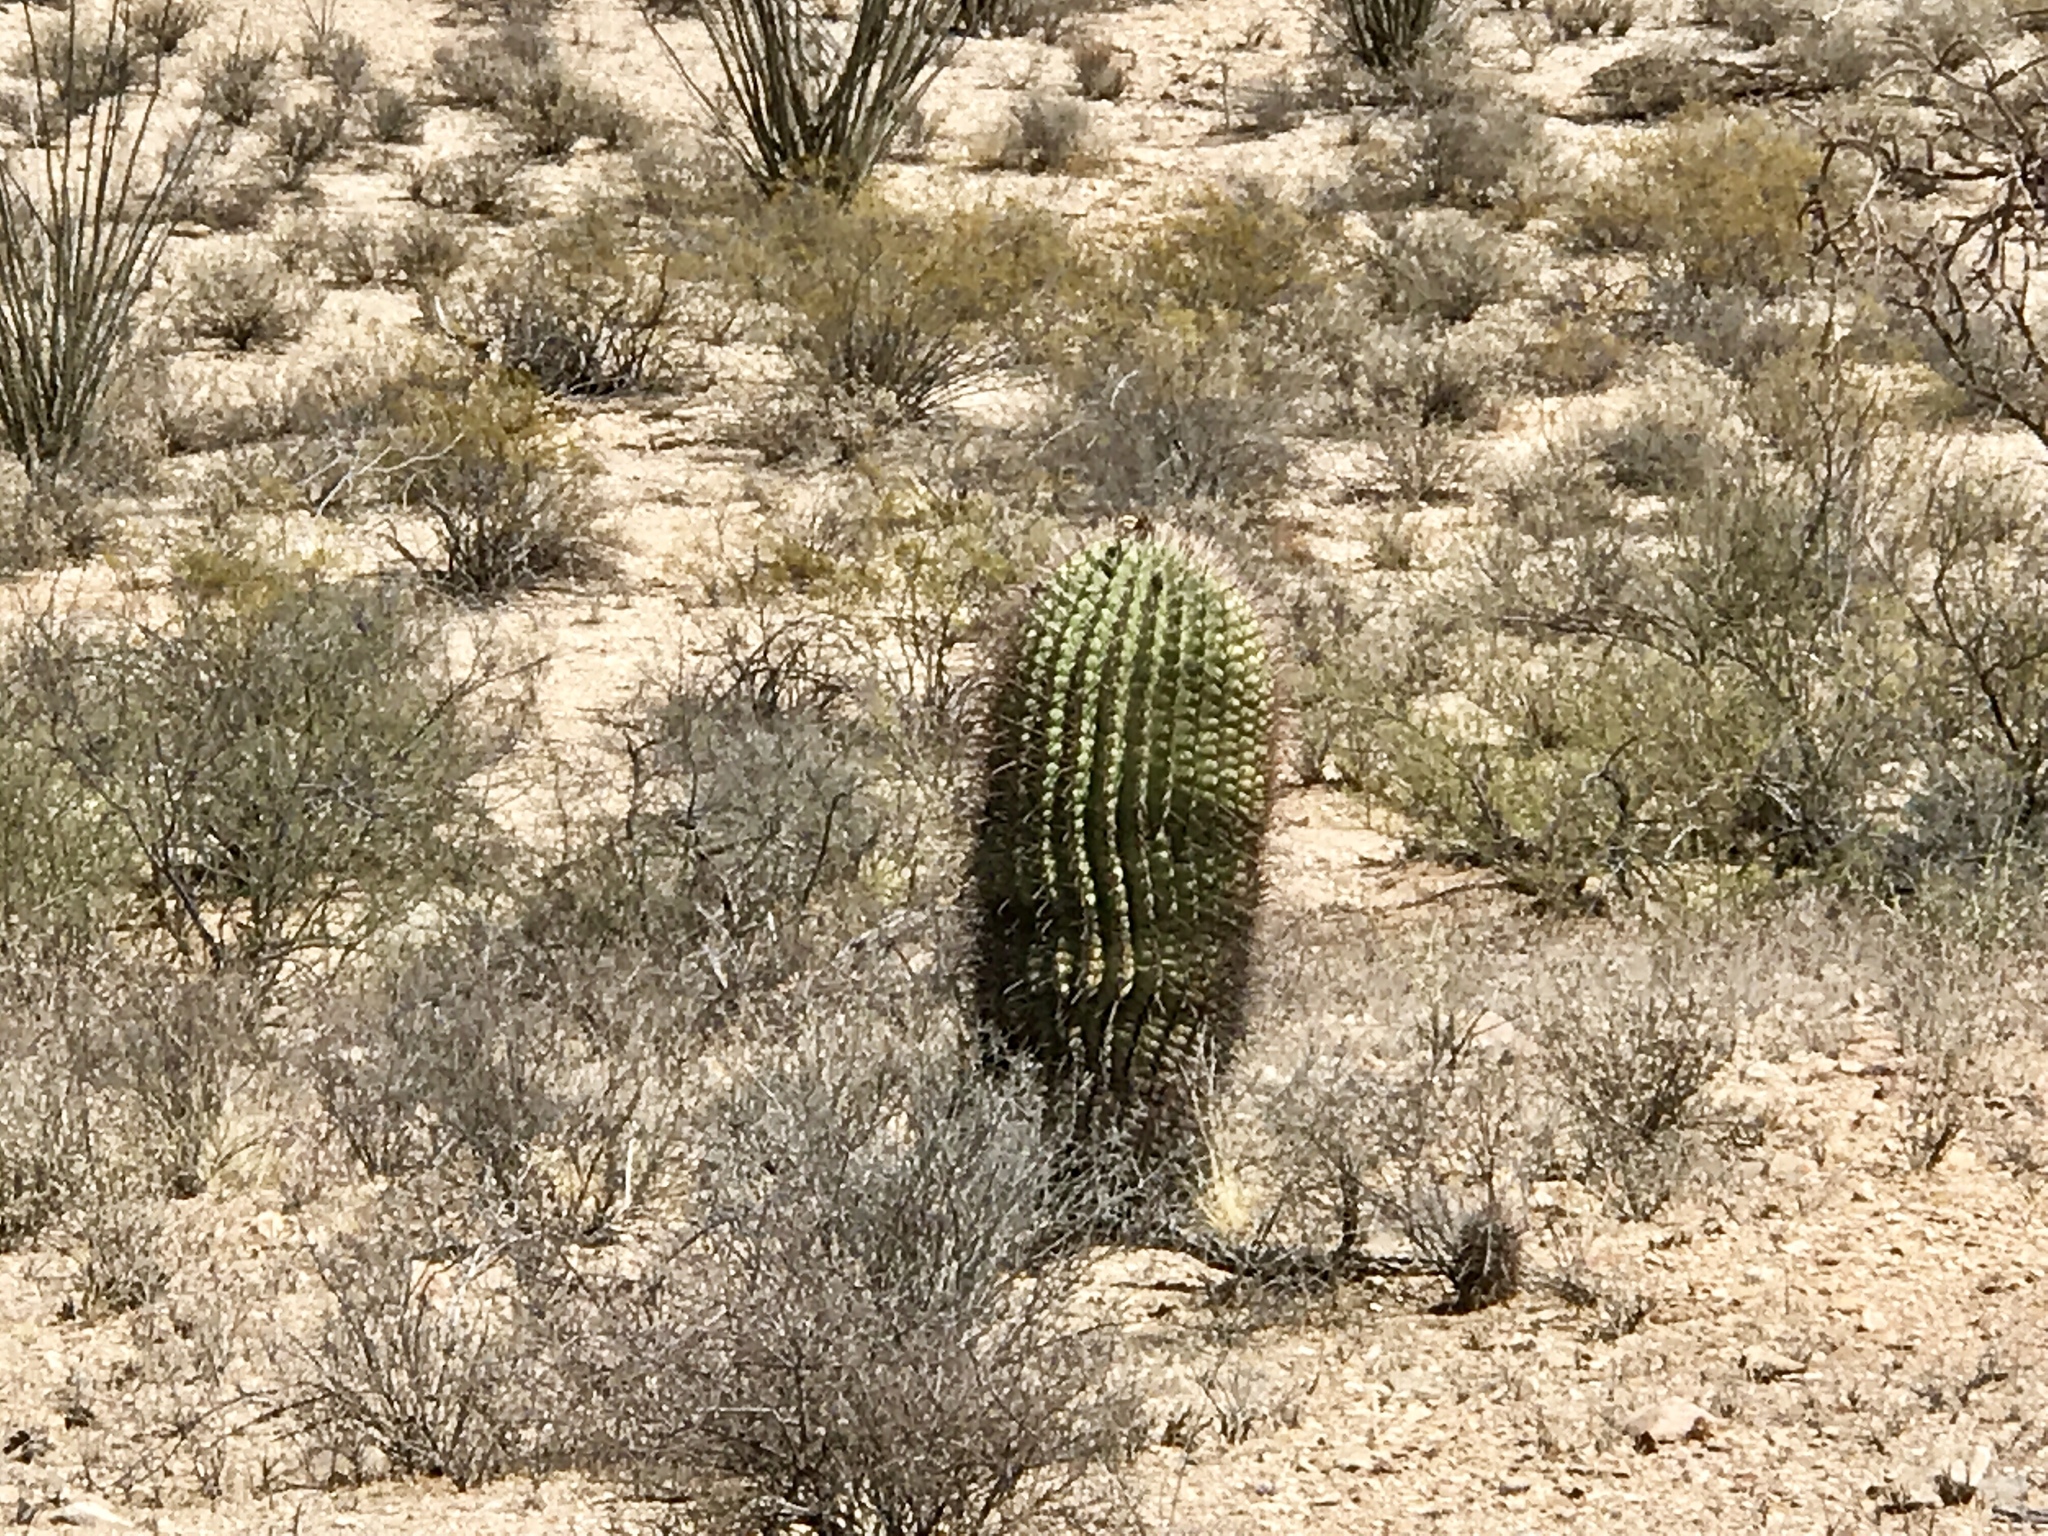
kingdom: Plantae
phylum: Tracheophyta
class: Magnoliopsida
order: Caryophyllales
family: Cactaceae
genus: Ferocactus
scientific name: Ferocactus wislizeni
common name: Candy barrel cactus
